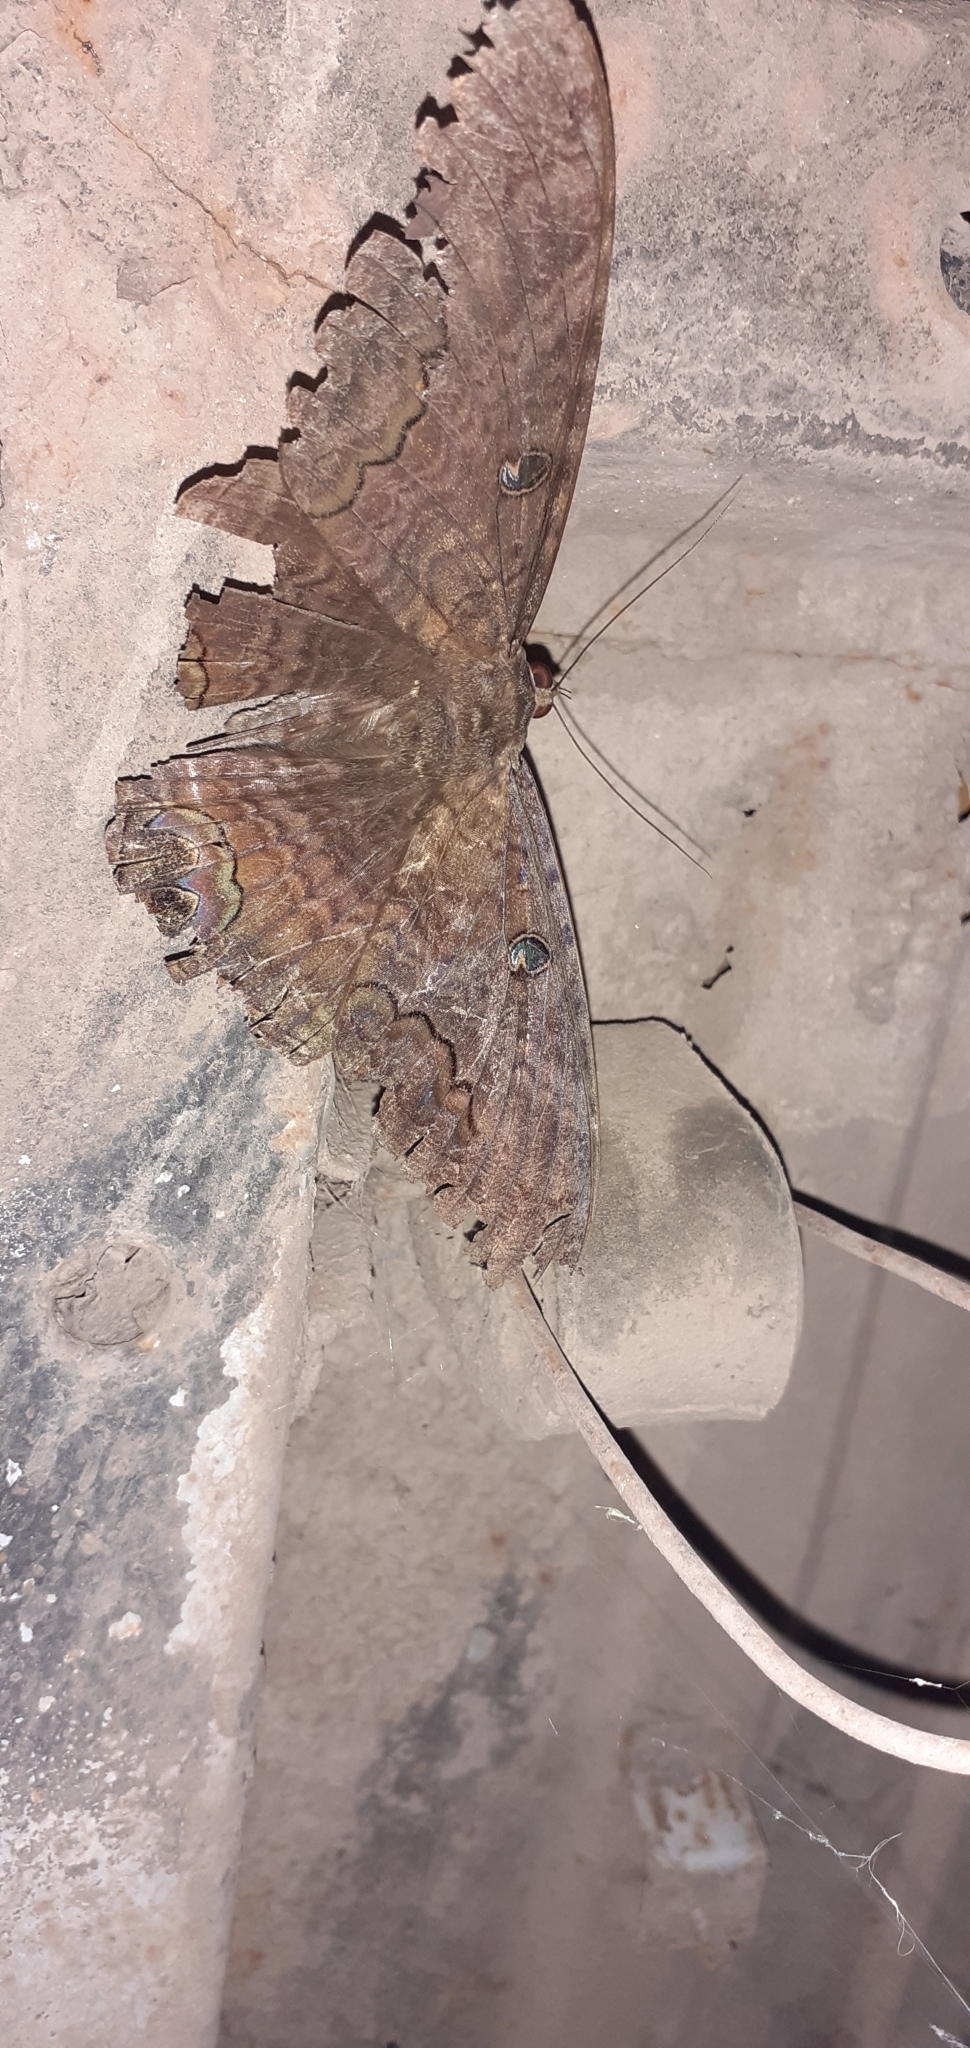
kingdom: Animalia
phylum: Arthropoda
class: Insecta
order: Lepidoptera
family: Erebidae
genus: Ascalapha
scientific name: Ascalapha odorata
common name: Black witch
